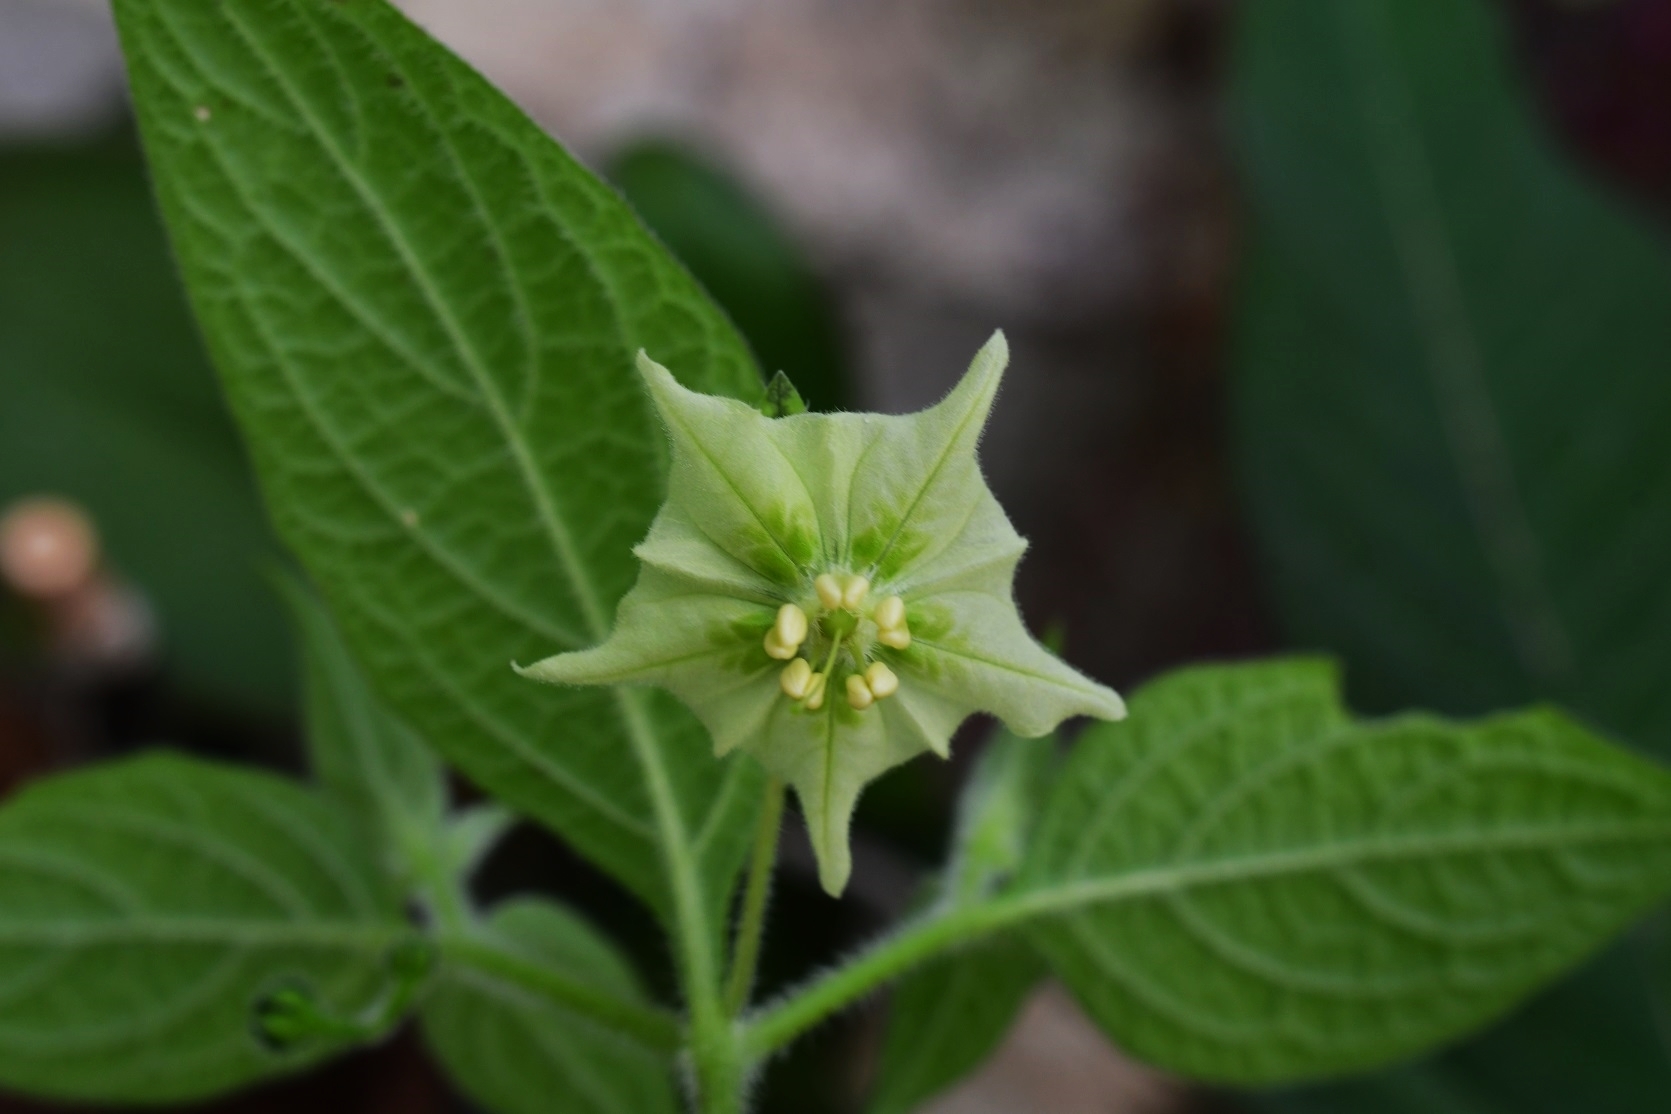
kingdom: Plantae
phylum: Tracheophyta
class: Magnoliopsida
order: Solanales
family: Solanaceae
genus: Jaltomata
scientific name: Jaltomata procumbens
